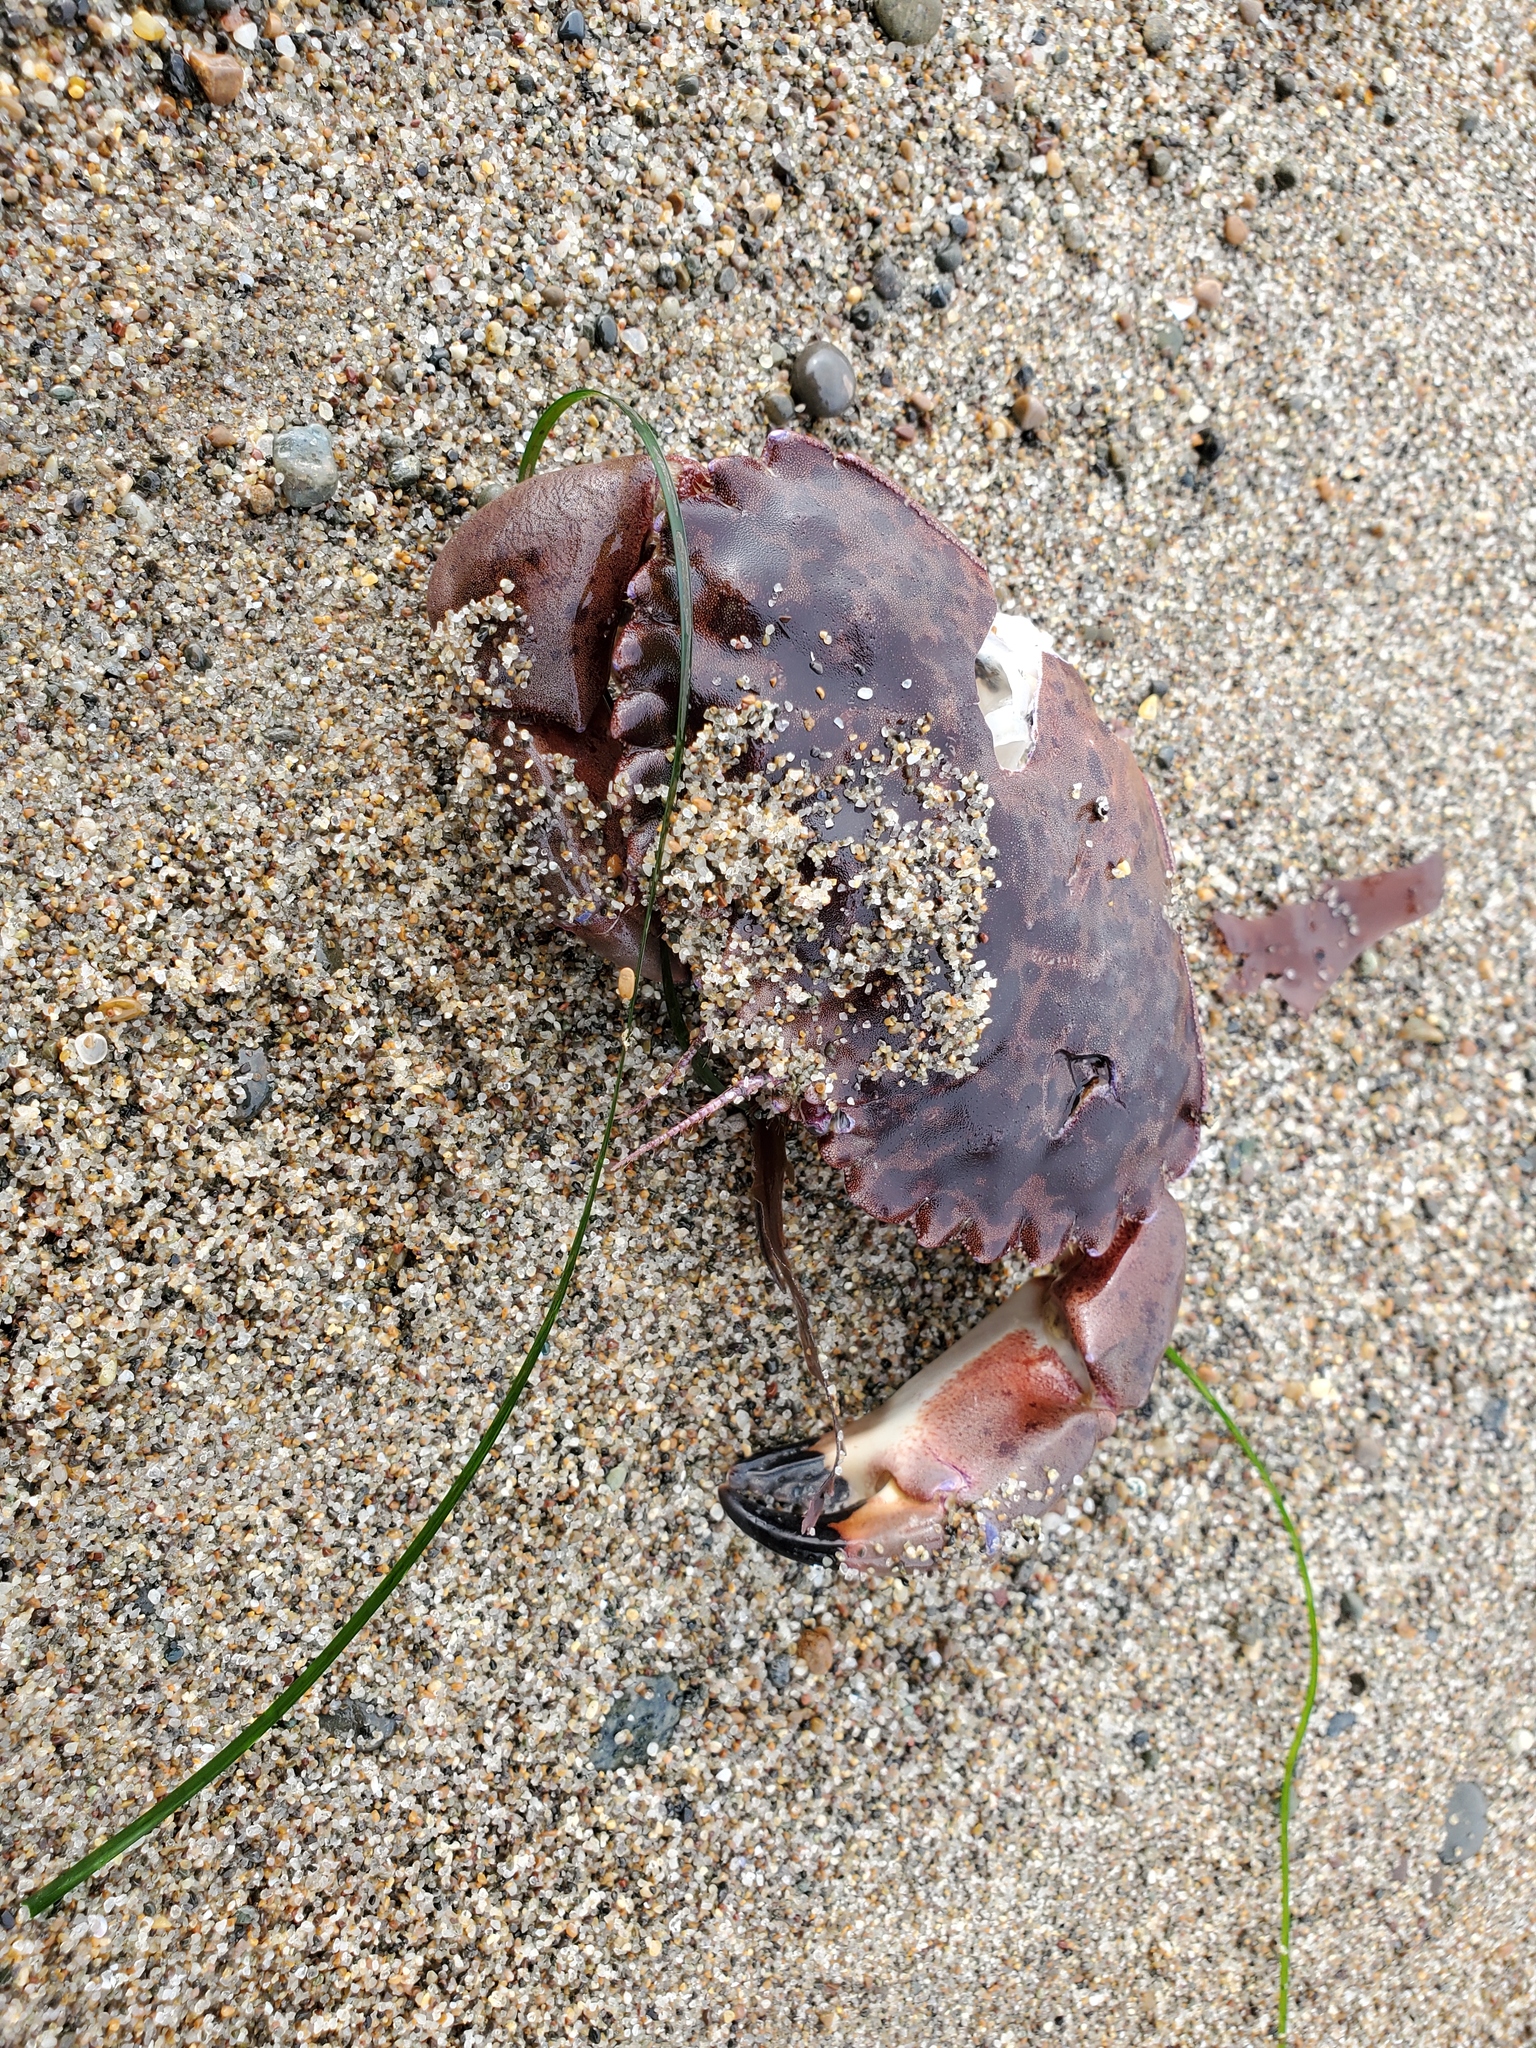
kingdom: Animalia
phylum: Arthropoda
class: Malacostraca
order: Decapoda
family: Cancridae
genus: Romaleon
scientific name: Romaleon antennarium
